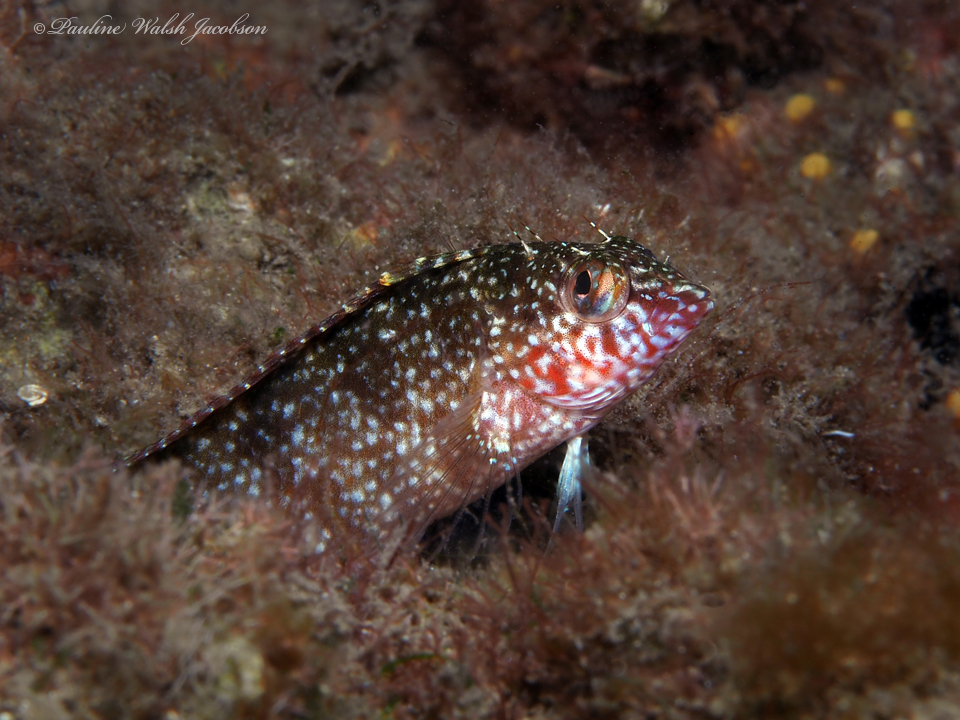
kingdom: Animalia
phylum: Chordata
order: Perciformes
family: Labrisomidae
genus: Malacoctenus
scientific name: Malacoctenus macropus
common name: Rosy blenny
